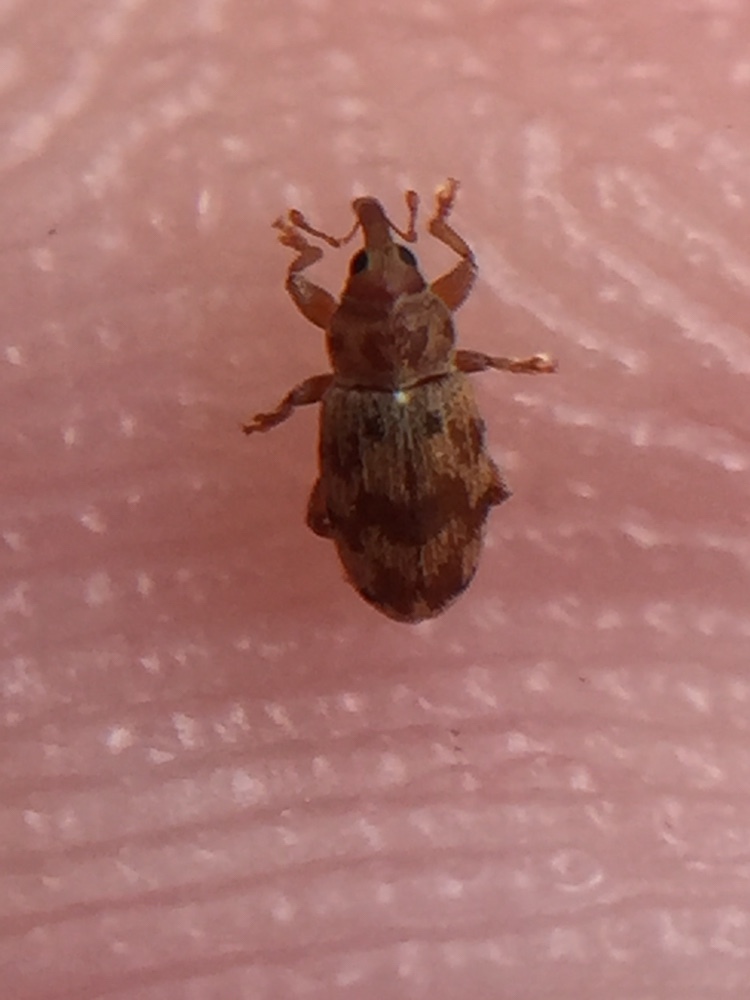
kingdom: Animalia
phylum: Arthropoda
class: Insecta
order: Coleoptera
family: Curculionidae
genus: Epamoebus
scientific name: Epamoebus ziczac
